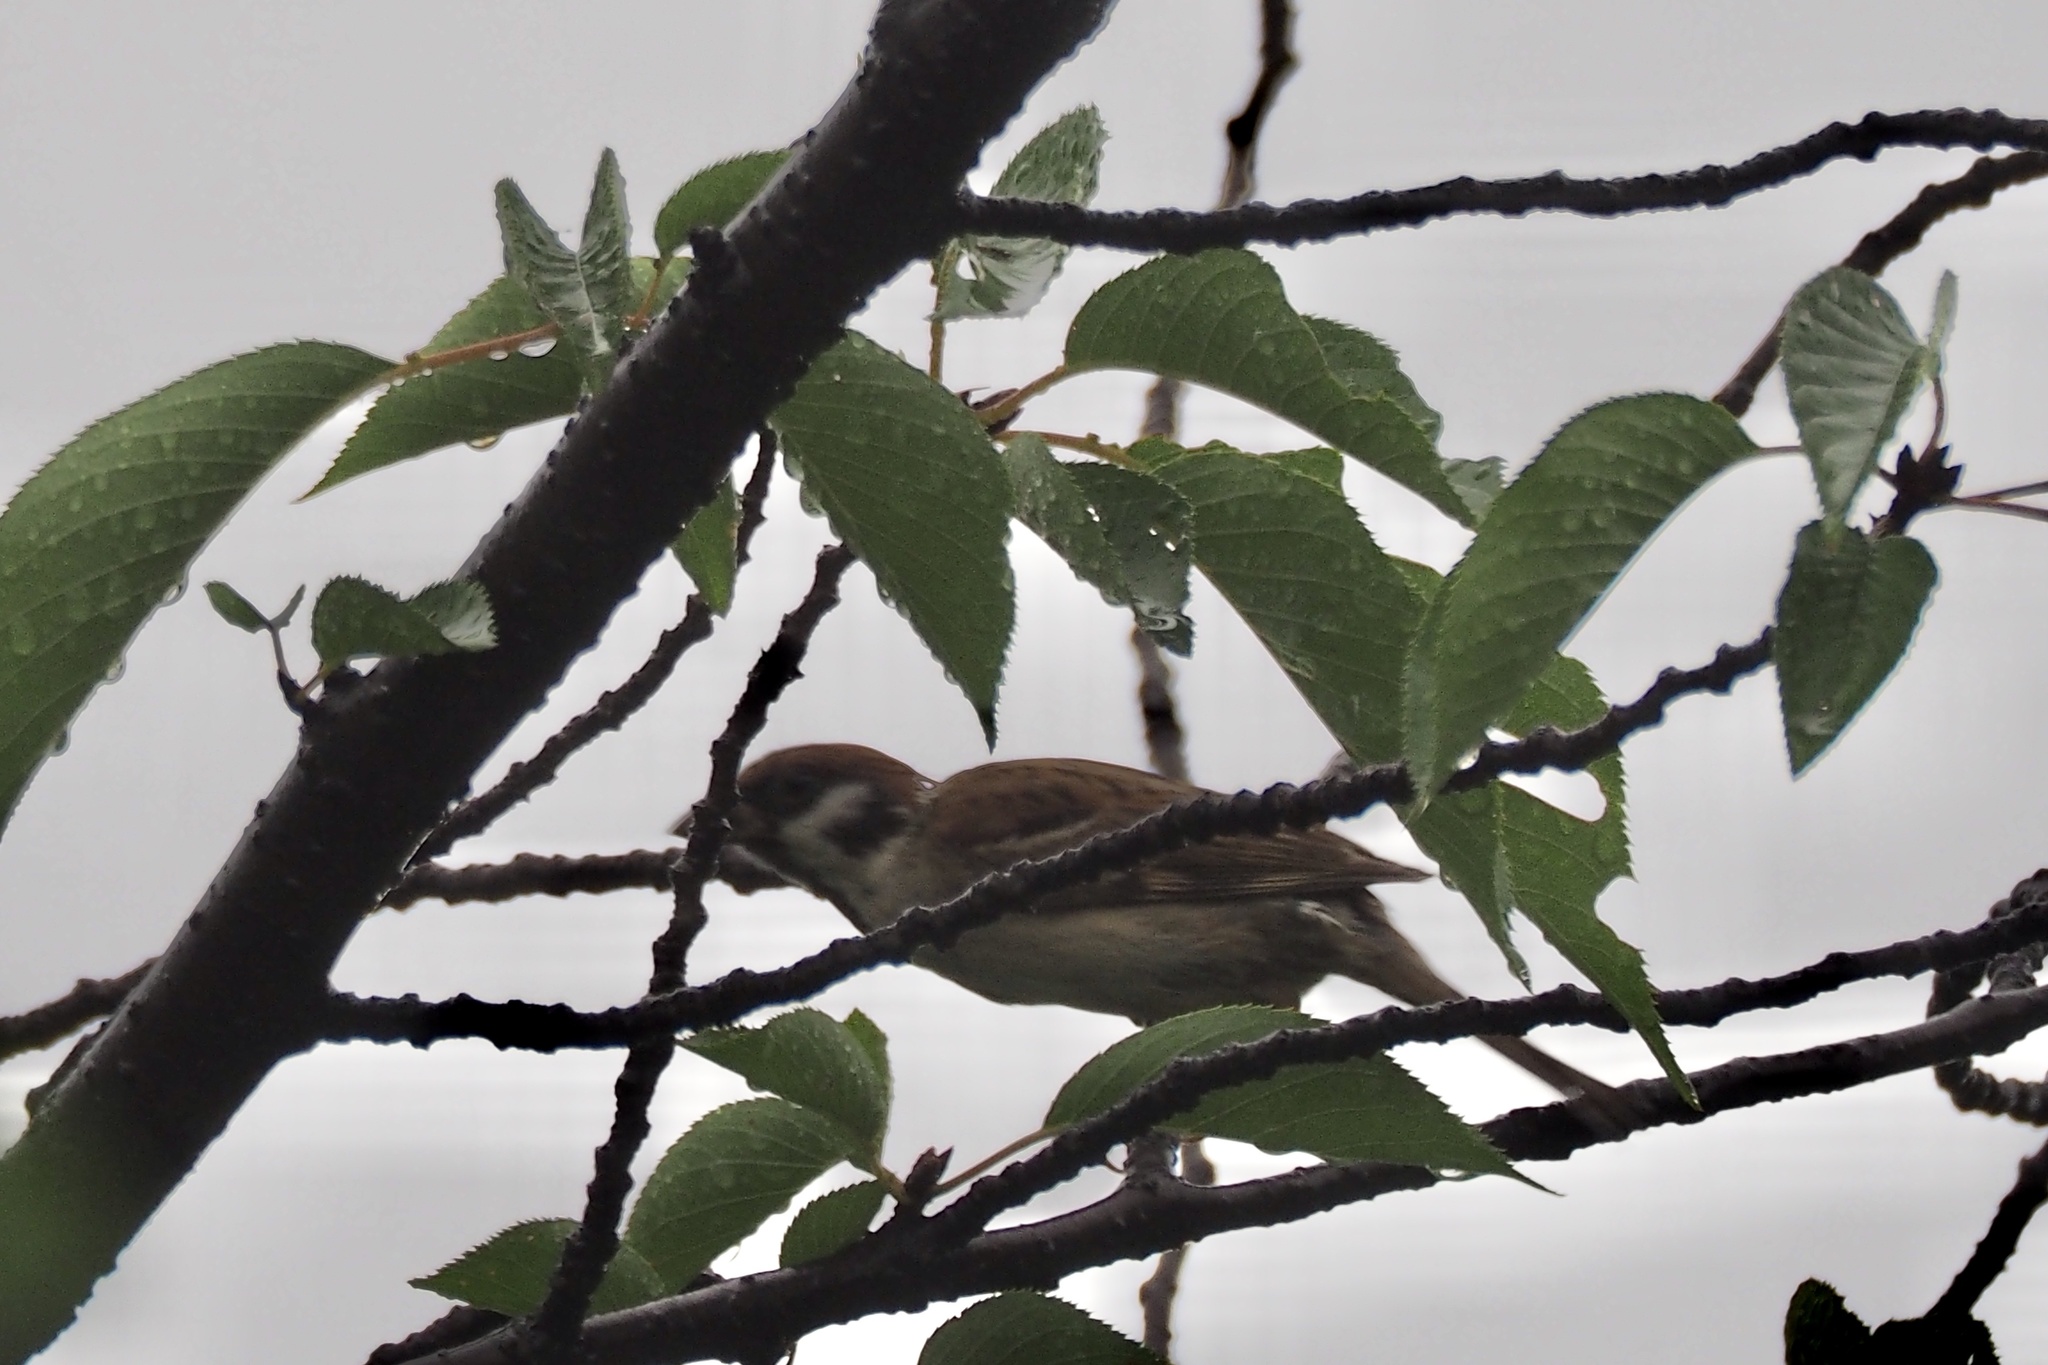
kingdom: Animalia
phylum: Chordata
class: Aves
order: Passeriformes
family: Passeridae
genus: Passer
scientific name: Passer montanus
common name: Eurasian tree sparrow
